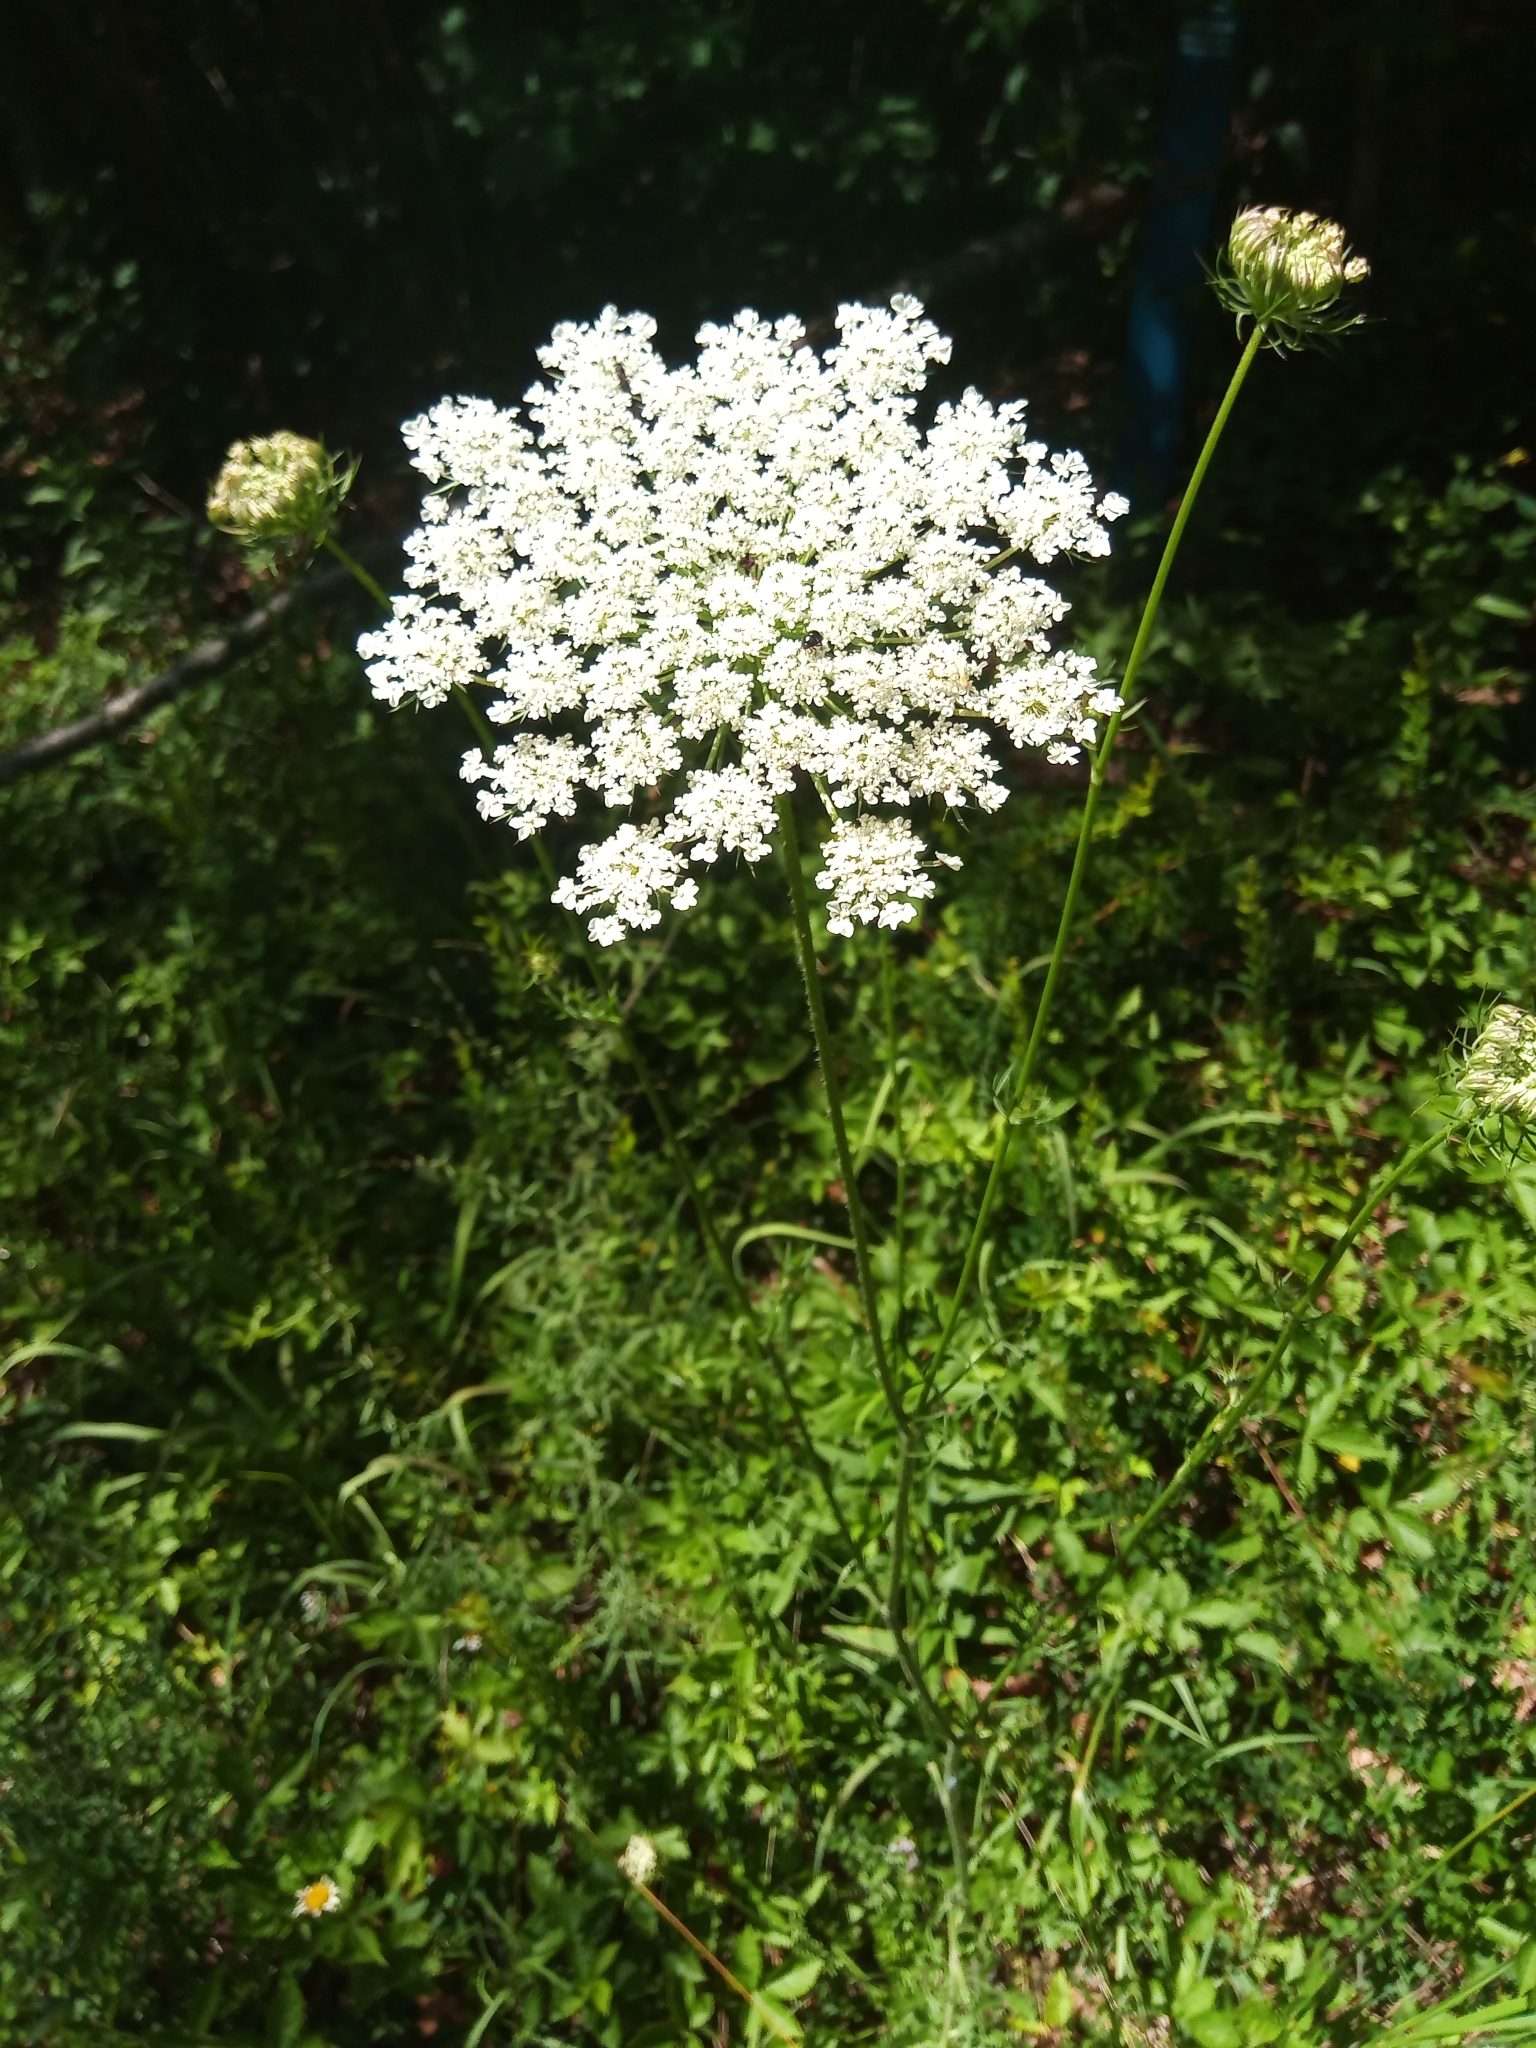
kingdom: Plantae
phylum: Tracheophyta
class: Magnoliopsida
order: Apiales
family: Apiaceae
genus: Daucus
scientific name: Daucus carota
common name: Wild carrot
